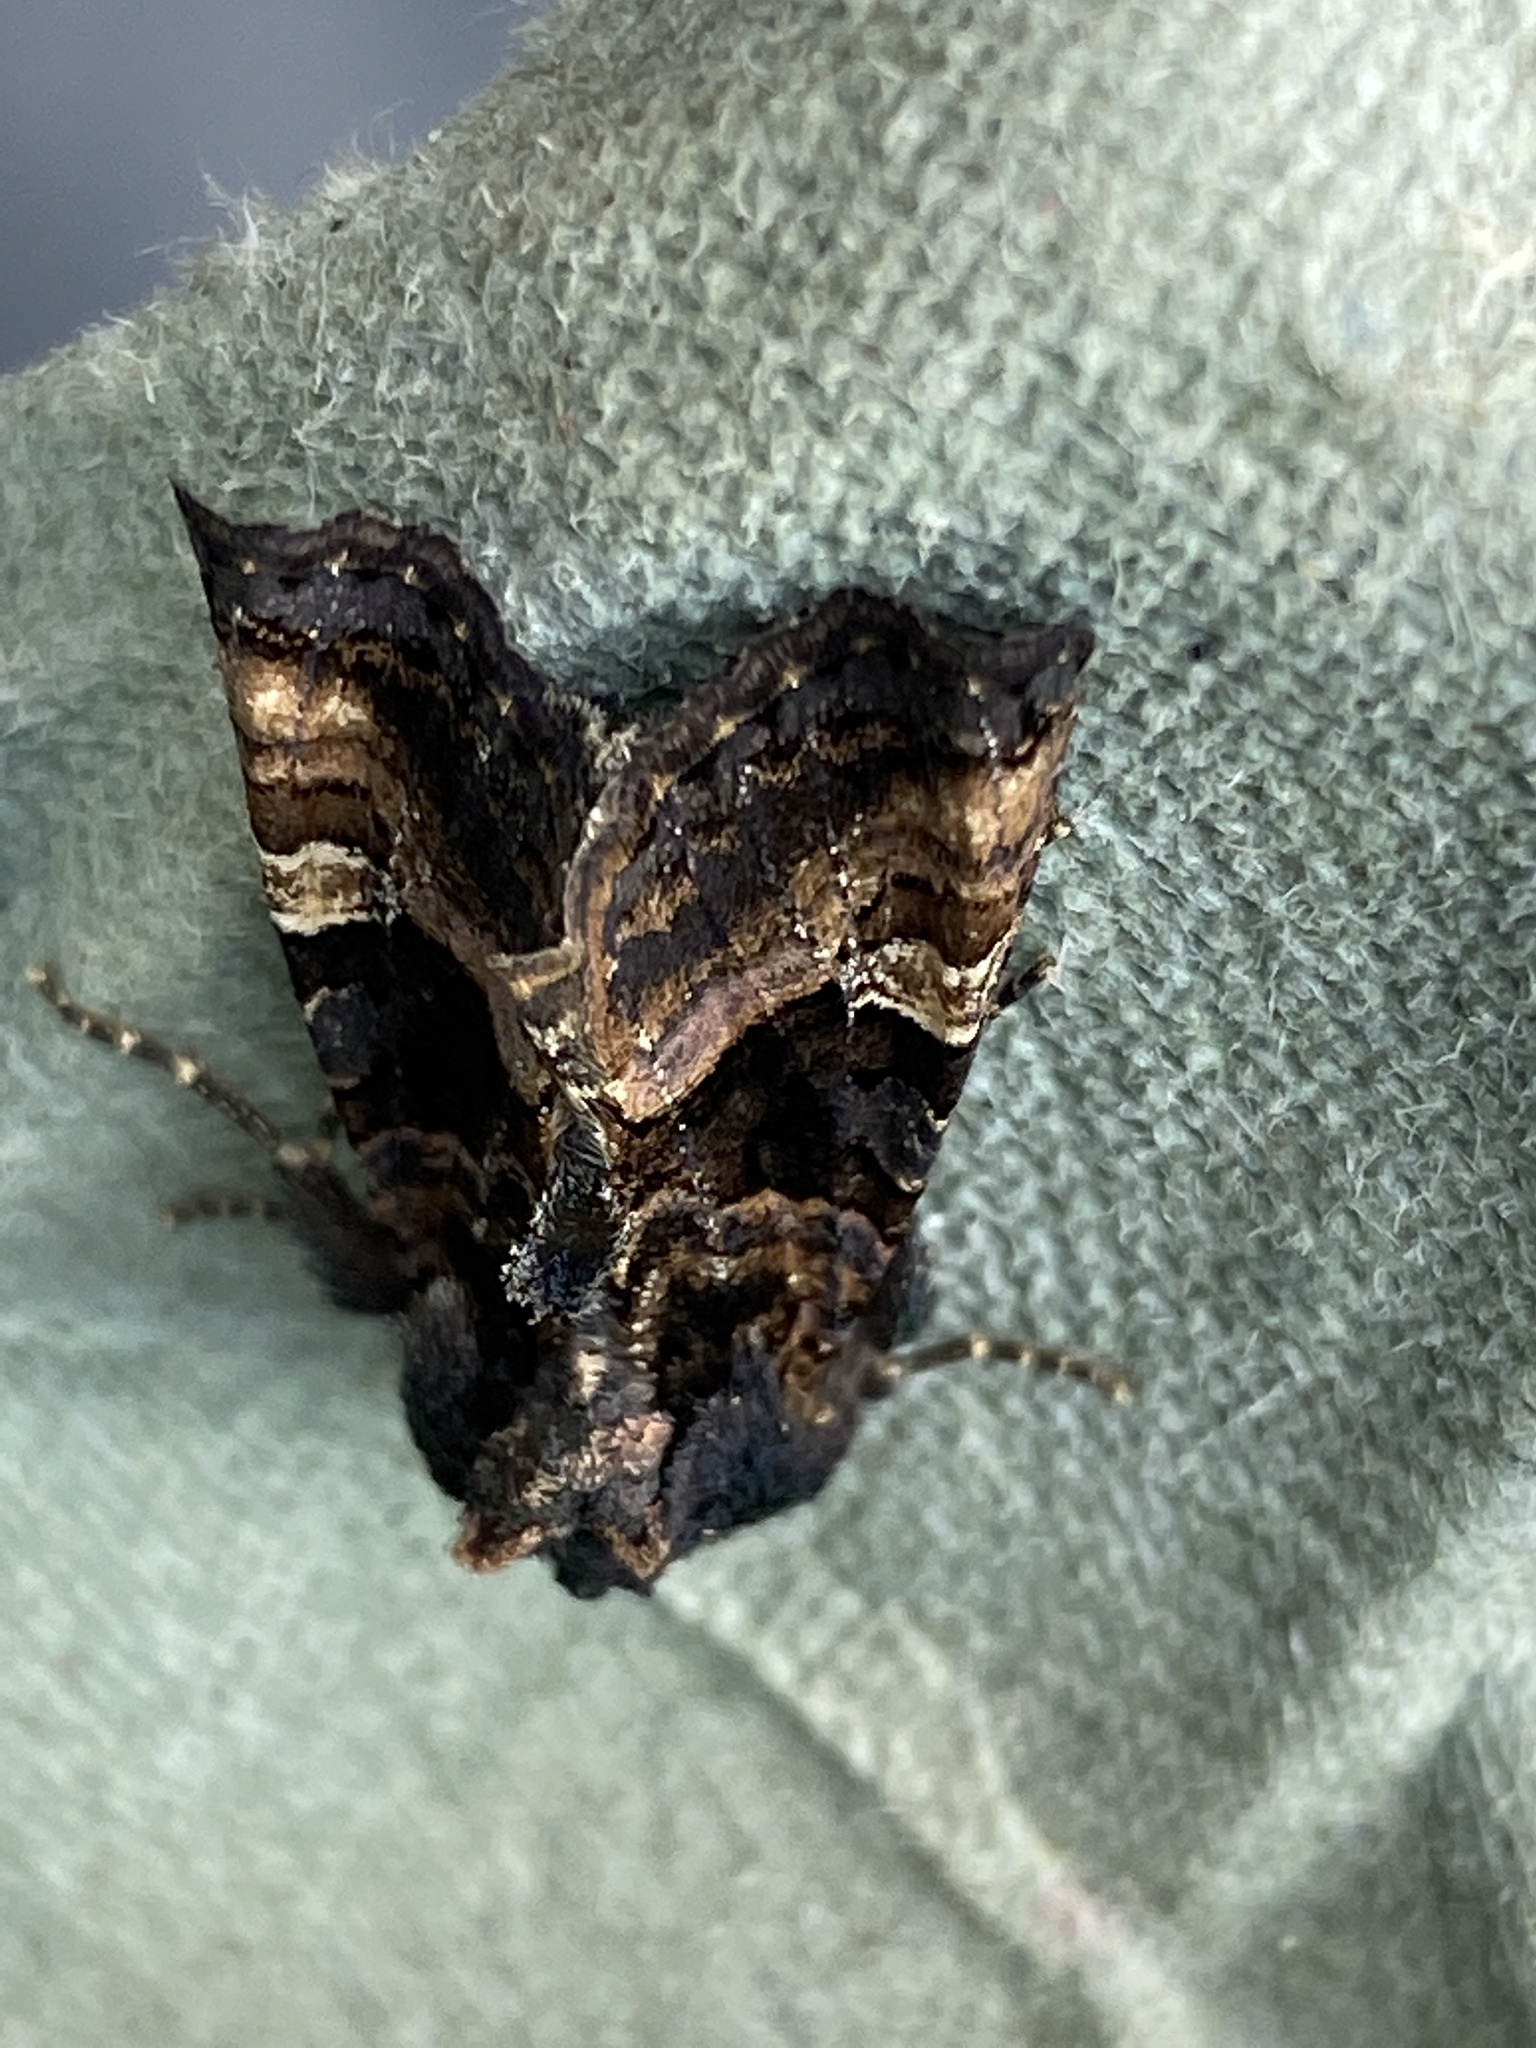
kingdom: Animalia
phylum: Arthropoda
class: Insecta
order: Lepidoptera
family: Noctuidae
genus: Euplexia
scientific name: Euplexia lucipara
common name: Small angle shades
